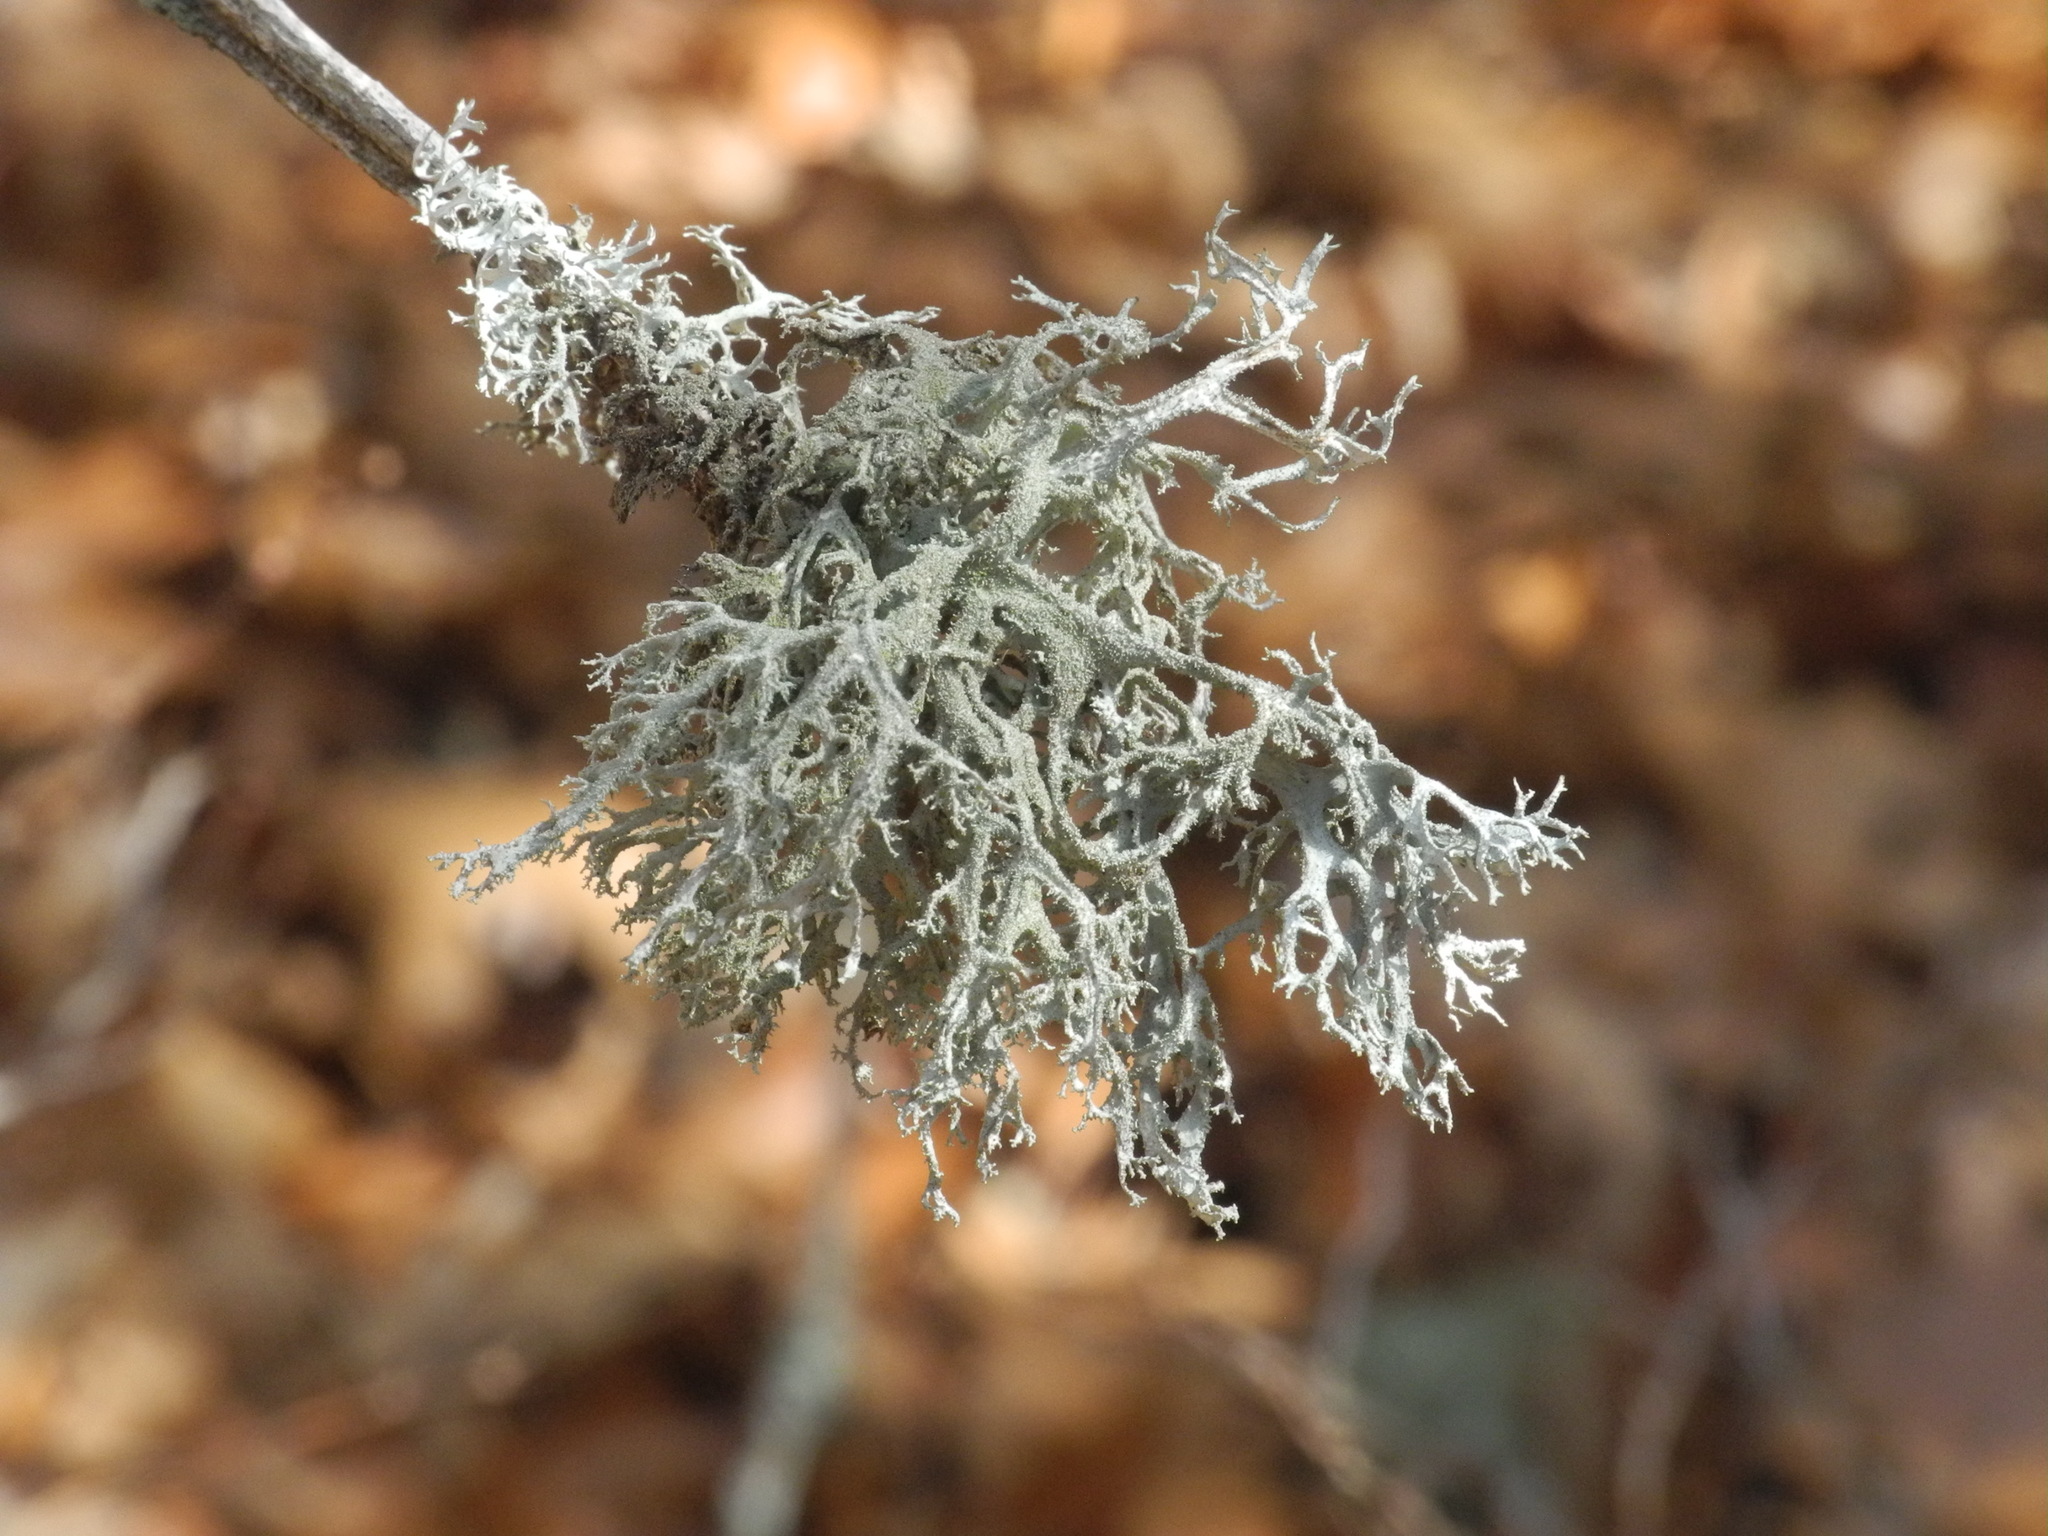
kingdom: Fungi
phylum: Ascomycota
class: Lecanoromycetes
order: Lecanorales
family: Parmeliaceae
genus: Pseudevernia
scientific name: Pseudevernia consocians
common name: Common antler lichen
